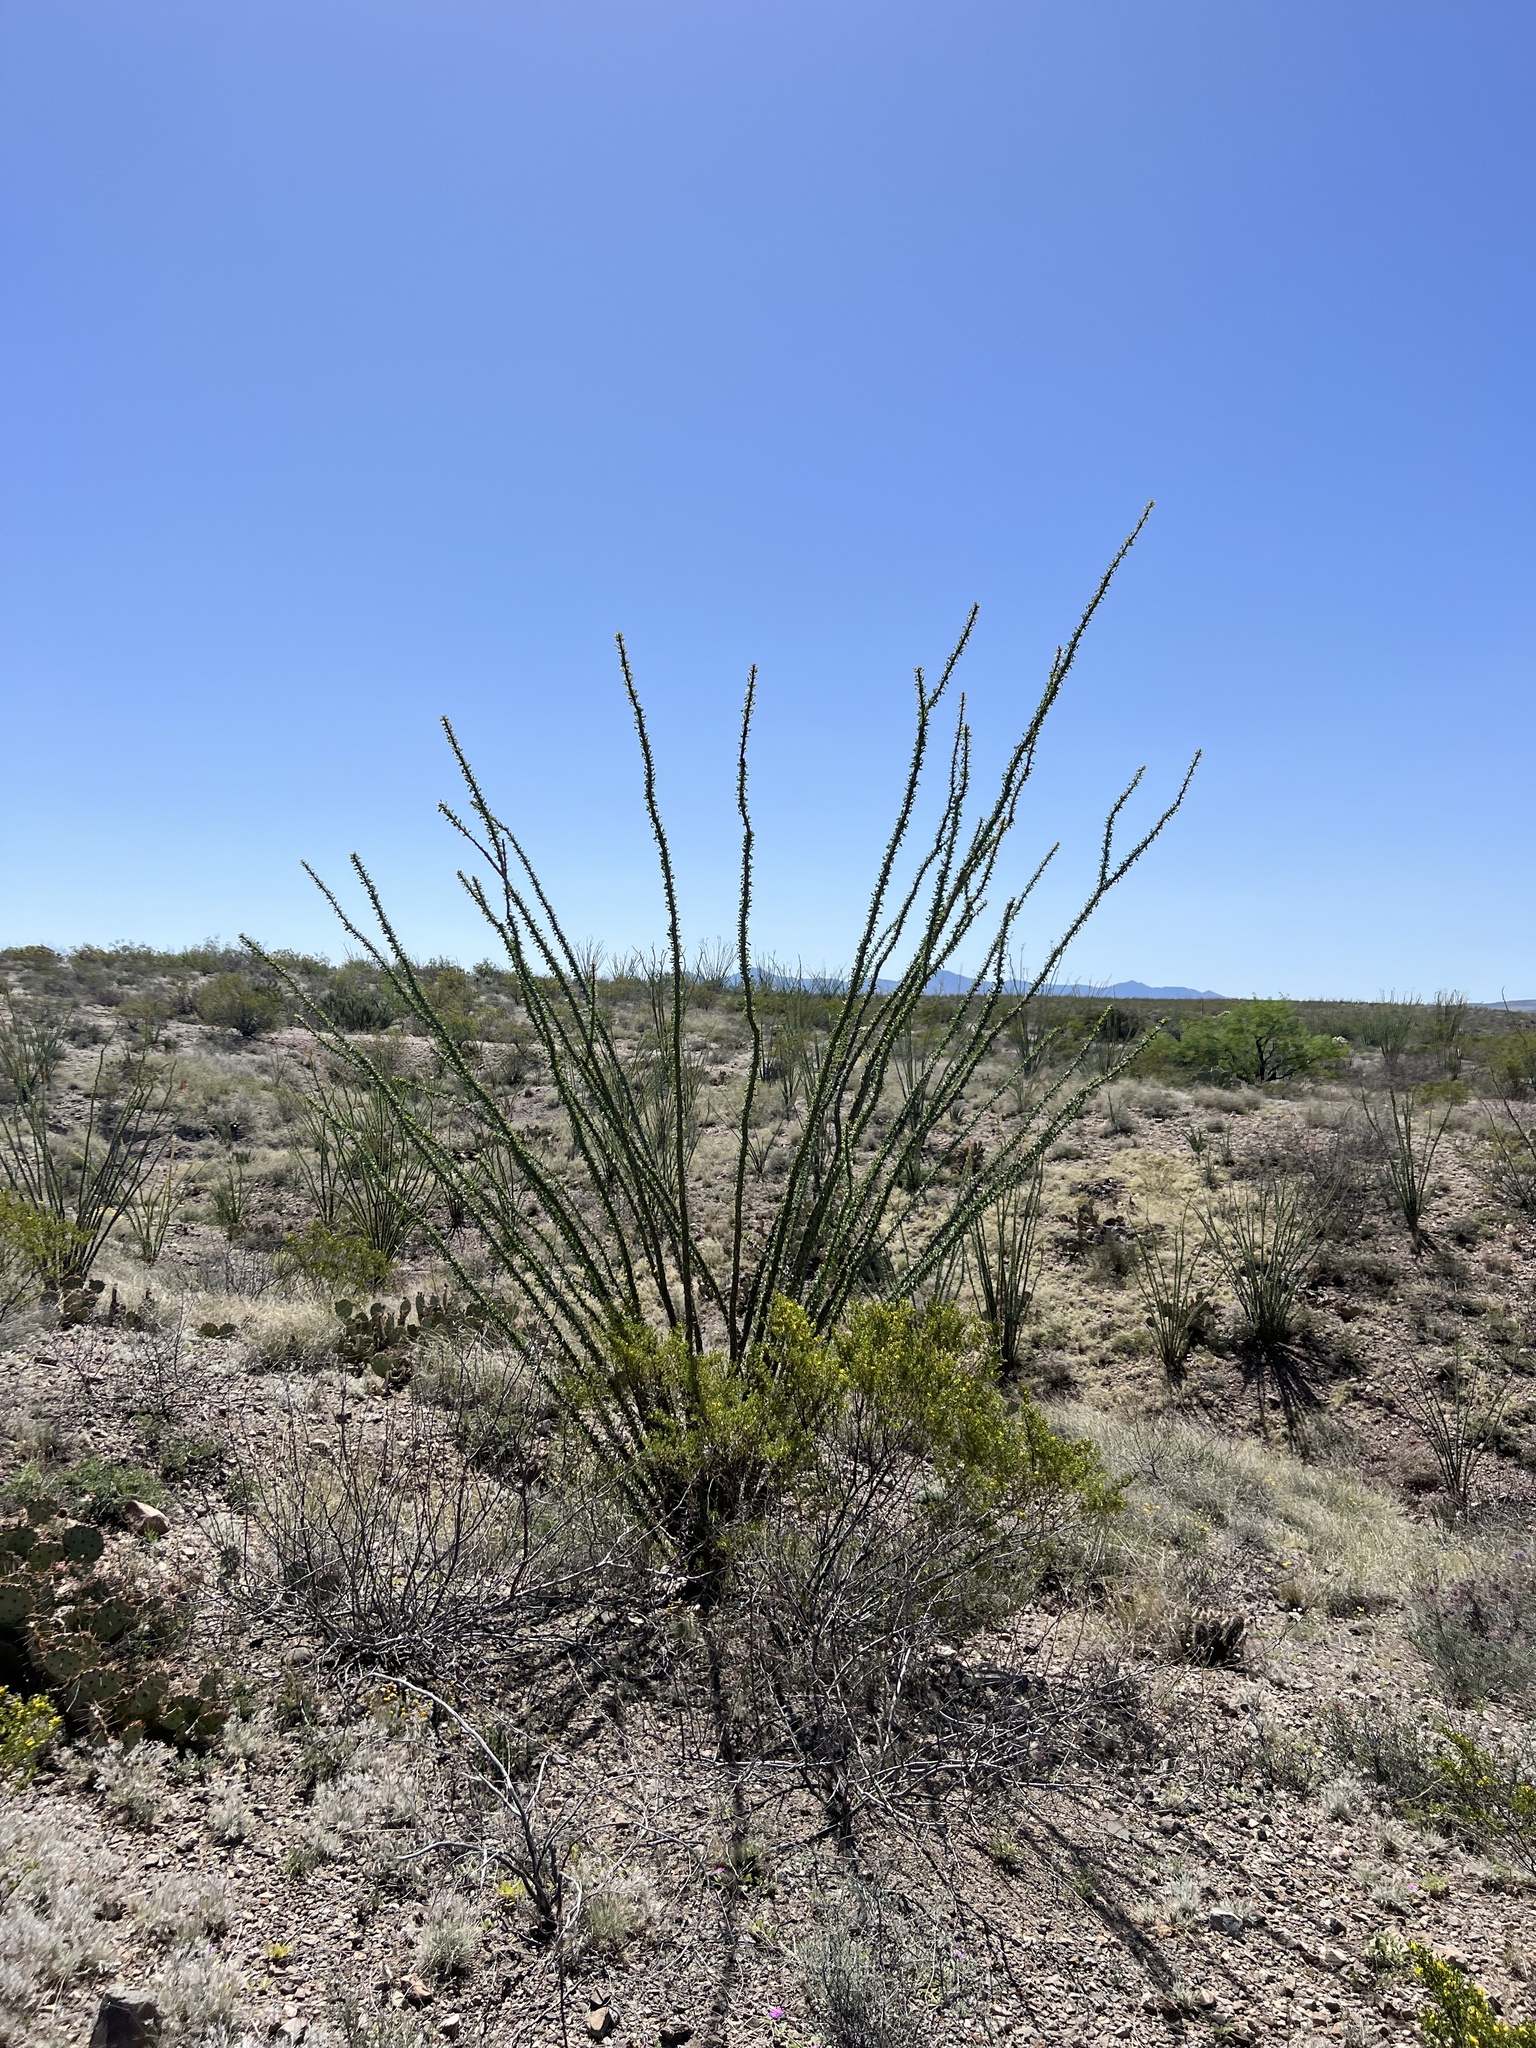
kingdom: Plantae
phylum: Tracheophyta
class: Magnoliopsida
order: Ericales
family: Fouquieriaceae
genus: Fouquieria
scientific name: Fouquieria splendens
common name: Vine-cactus
